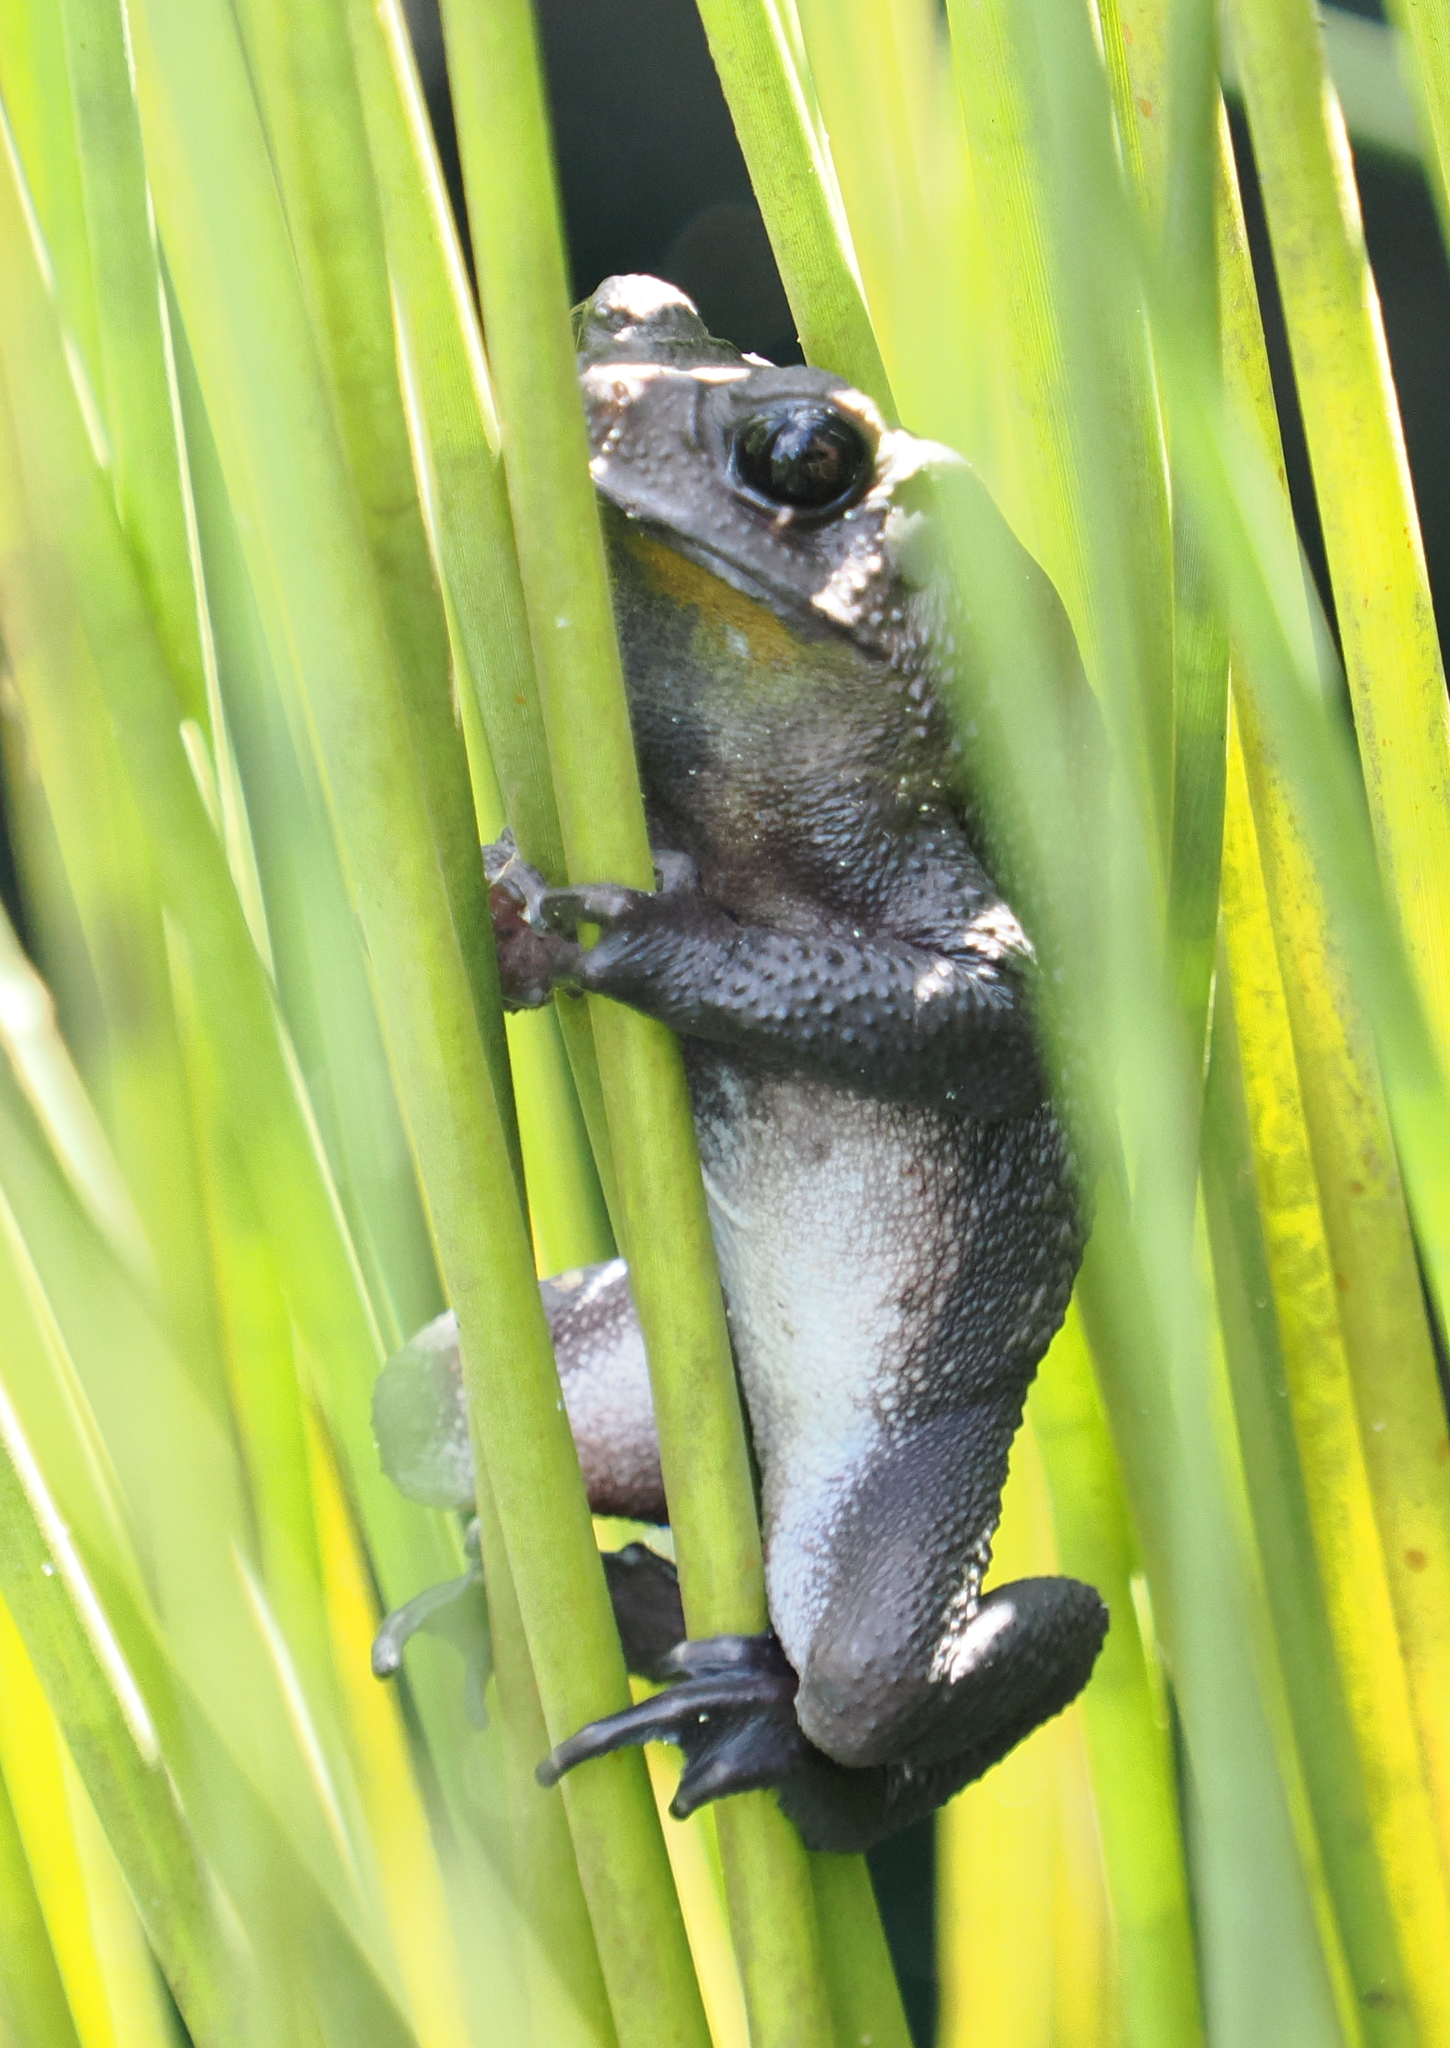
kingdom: Animalia
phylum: Chordata
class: Amphibia
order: Anura
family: Bufonidae
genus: Duttaphrynus
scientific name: Duttaphrynus melanostictus
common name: Common sunda toad
